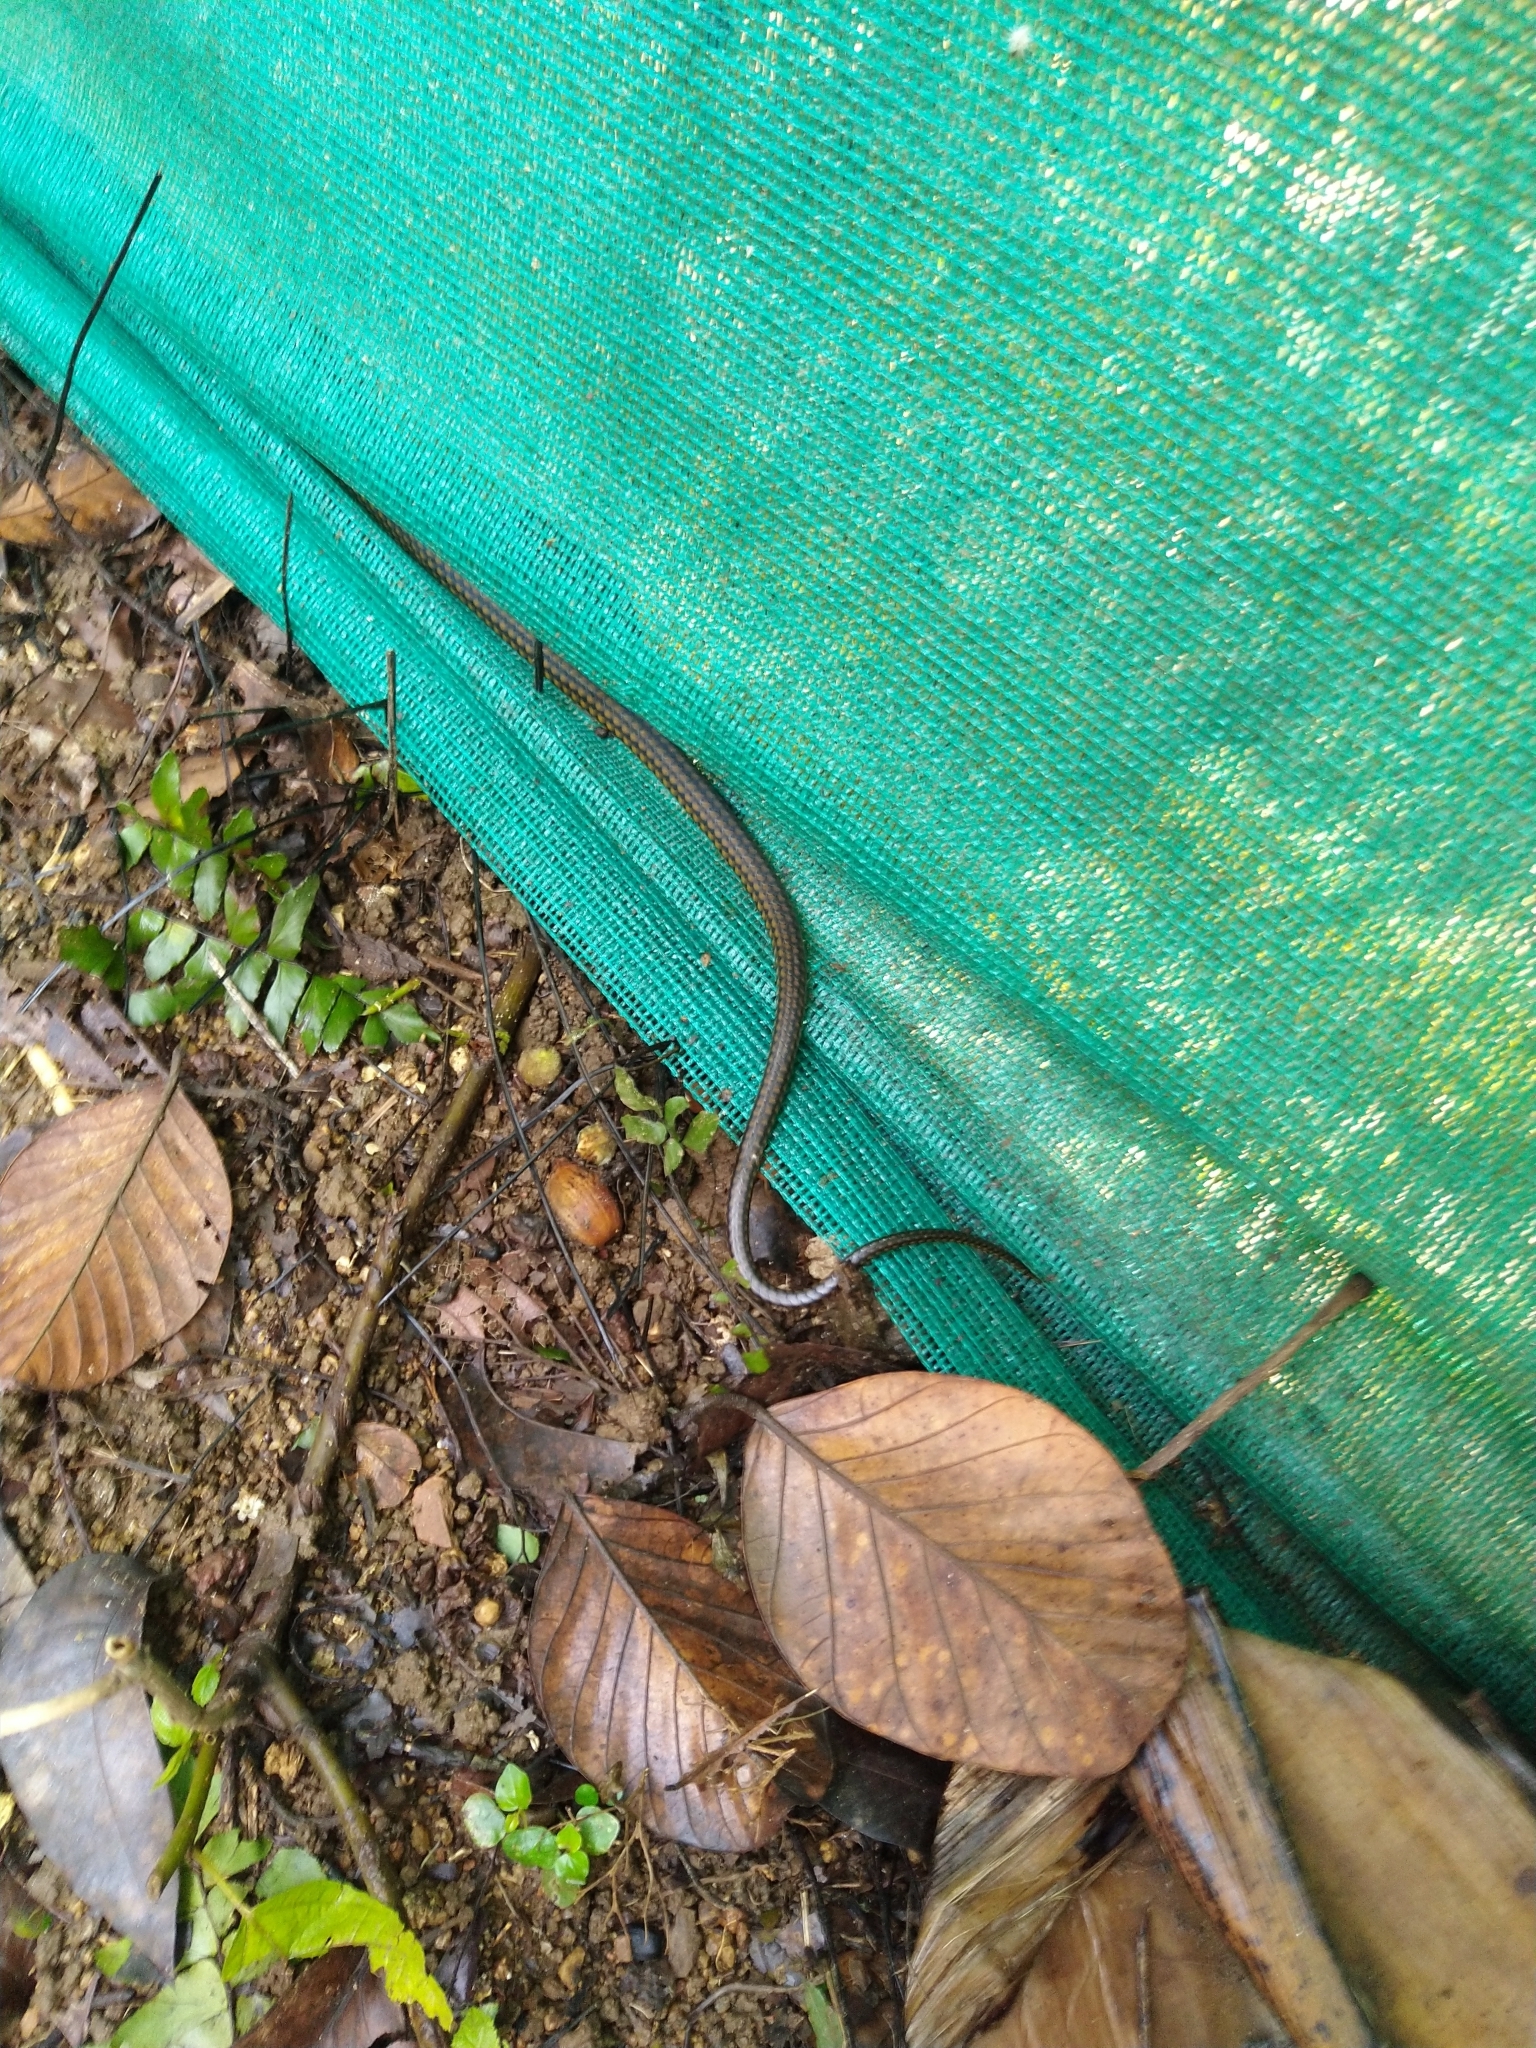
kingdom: Animalia
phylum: Chordata
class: Squamata
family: Colubridae
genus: Ptyas
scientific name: Ptyas mucosa
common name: Oriental ratsnake
